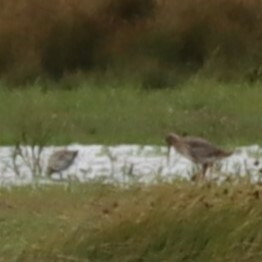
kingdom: Animalia
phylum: Chordata
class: Aves
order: Charadriiformes
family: Scolopacidae
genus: Numenius
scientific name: Numenius arquata
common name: Eurasian curlew
